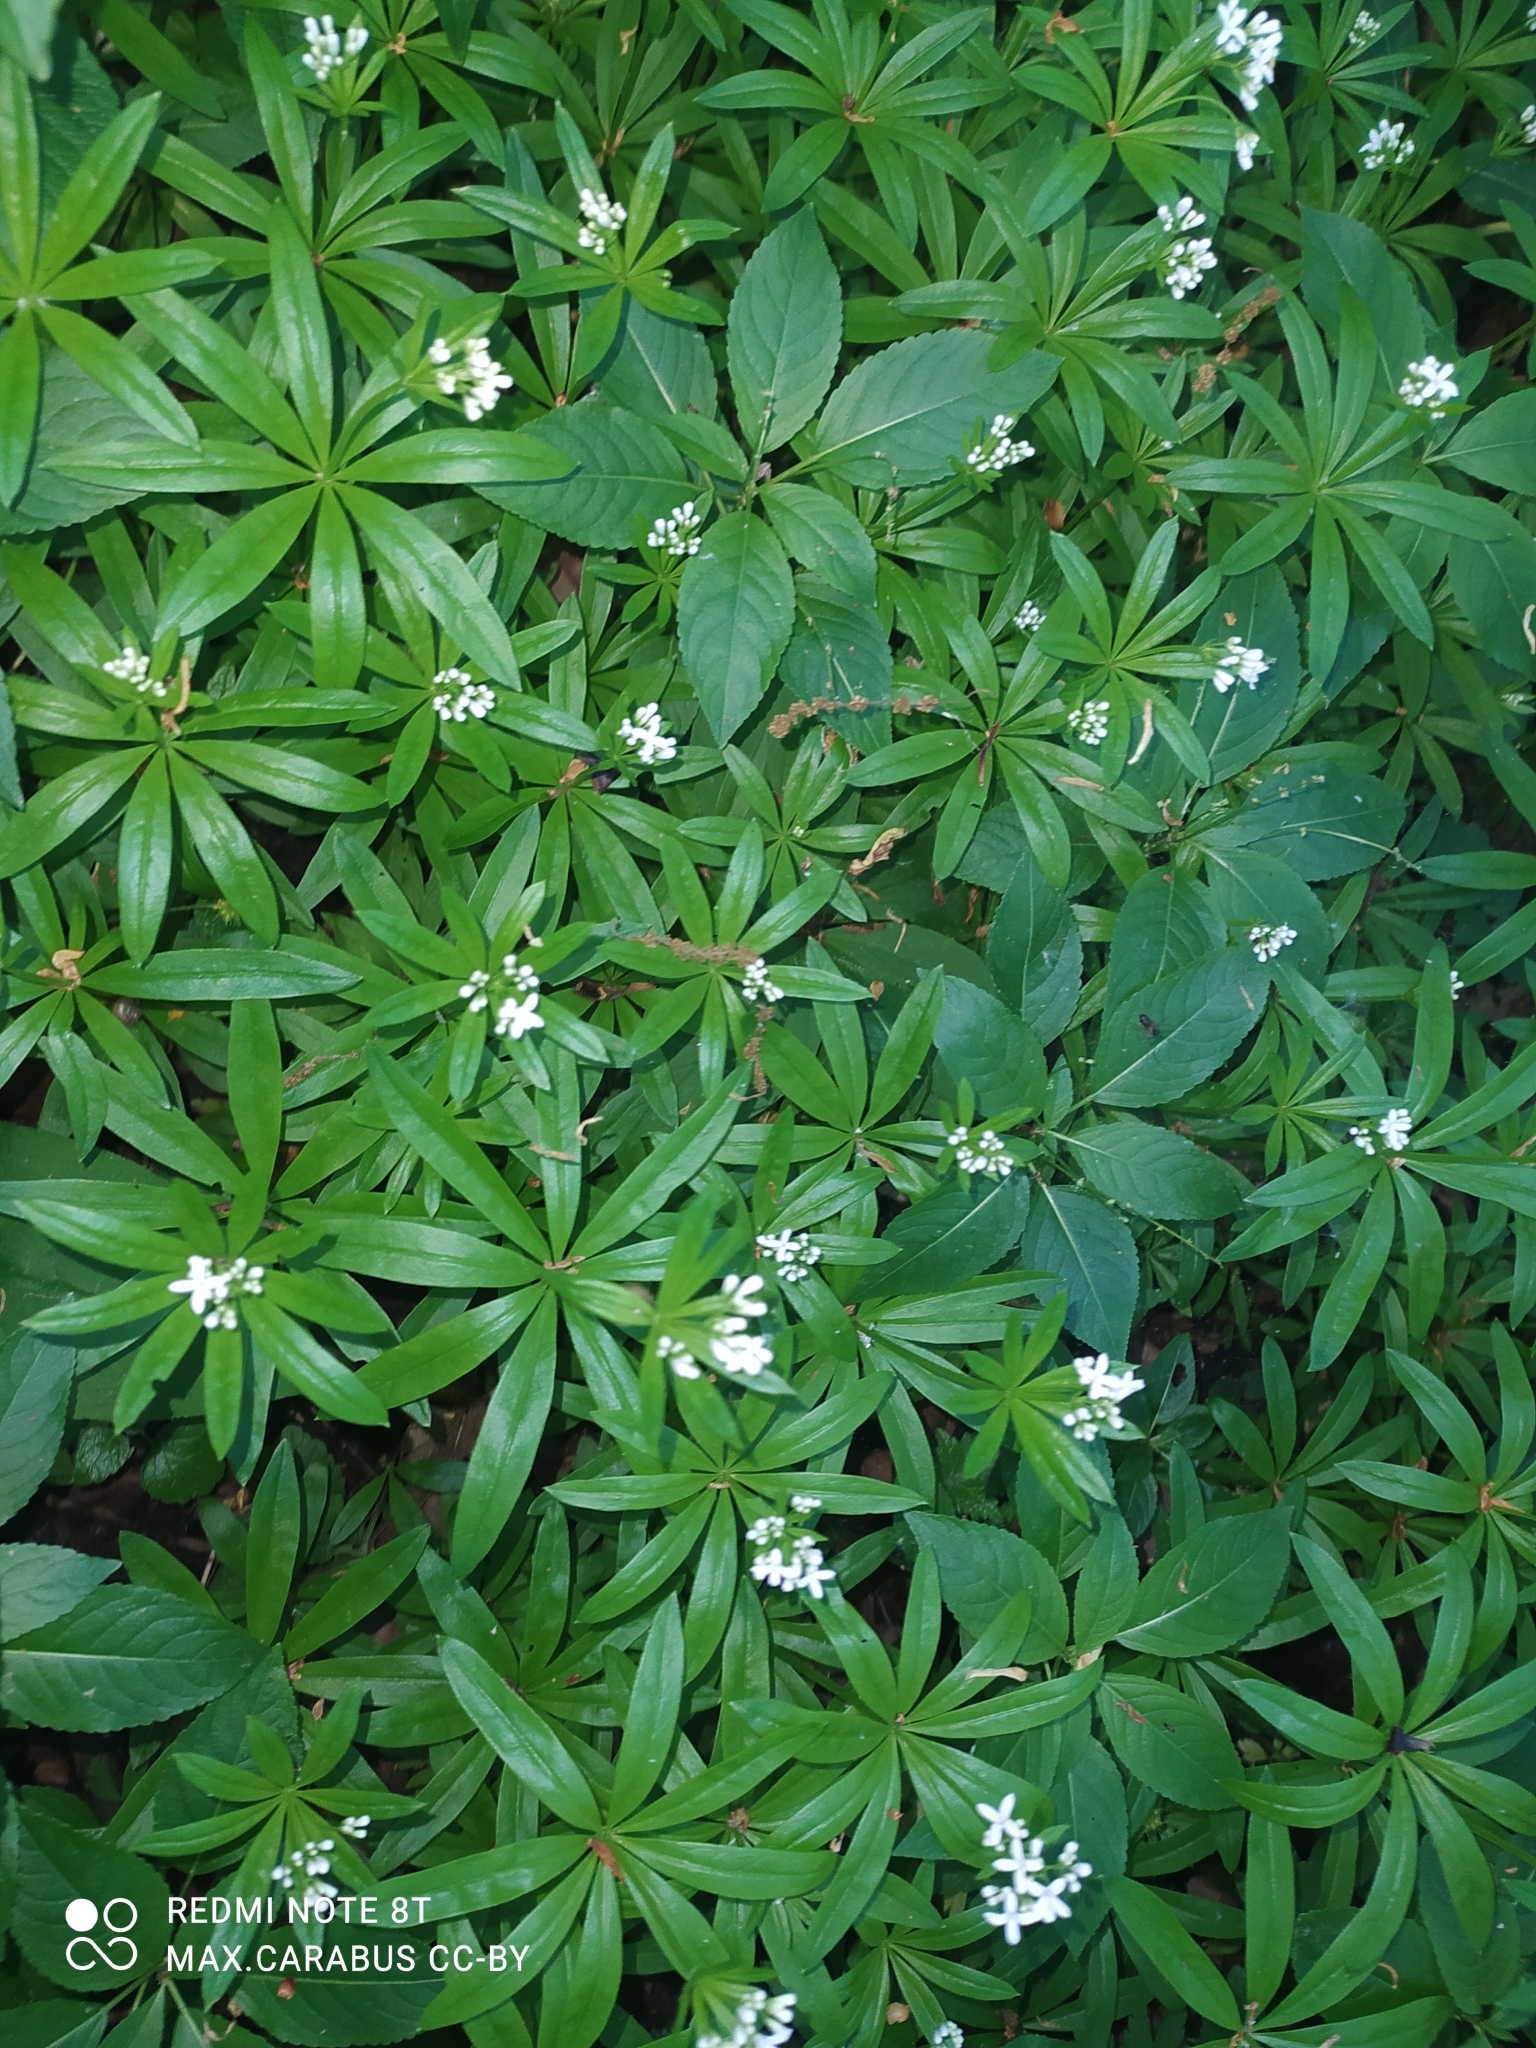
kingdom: Plantae
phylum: Tracheophyta
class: Magnoliopsida
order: Gentianales
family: Rubiaceae
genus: Galium
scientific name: Galium odoratum
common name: Sweet woodruff
